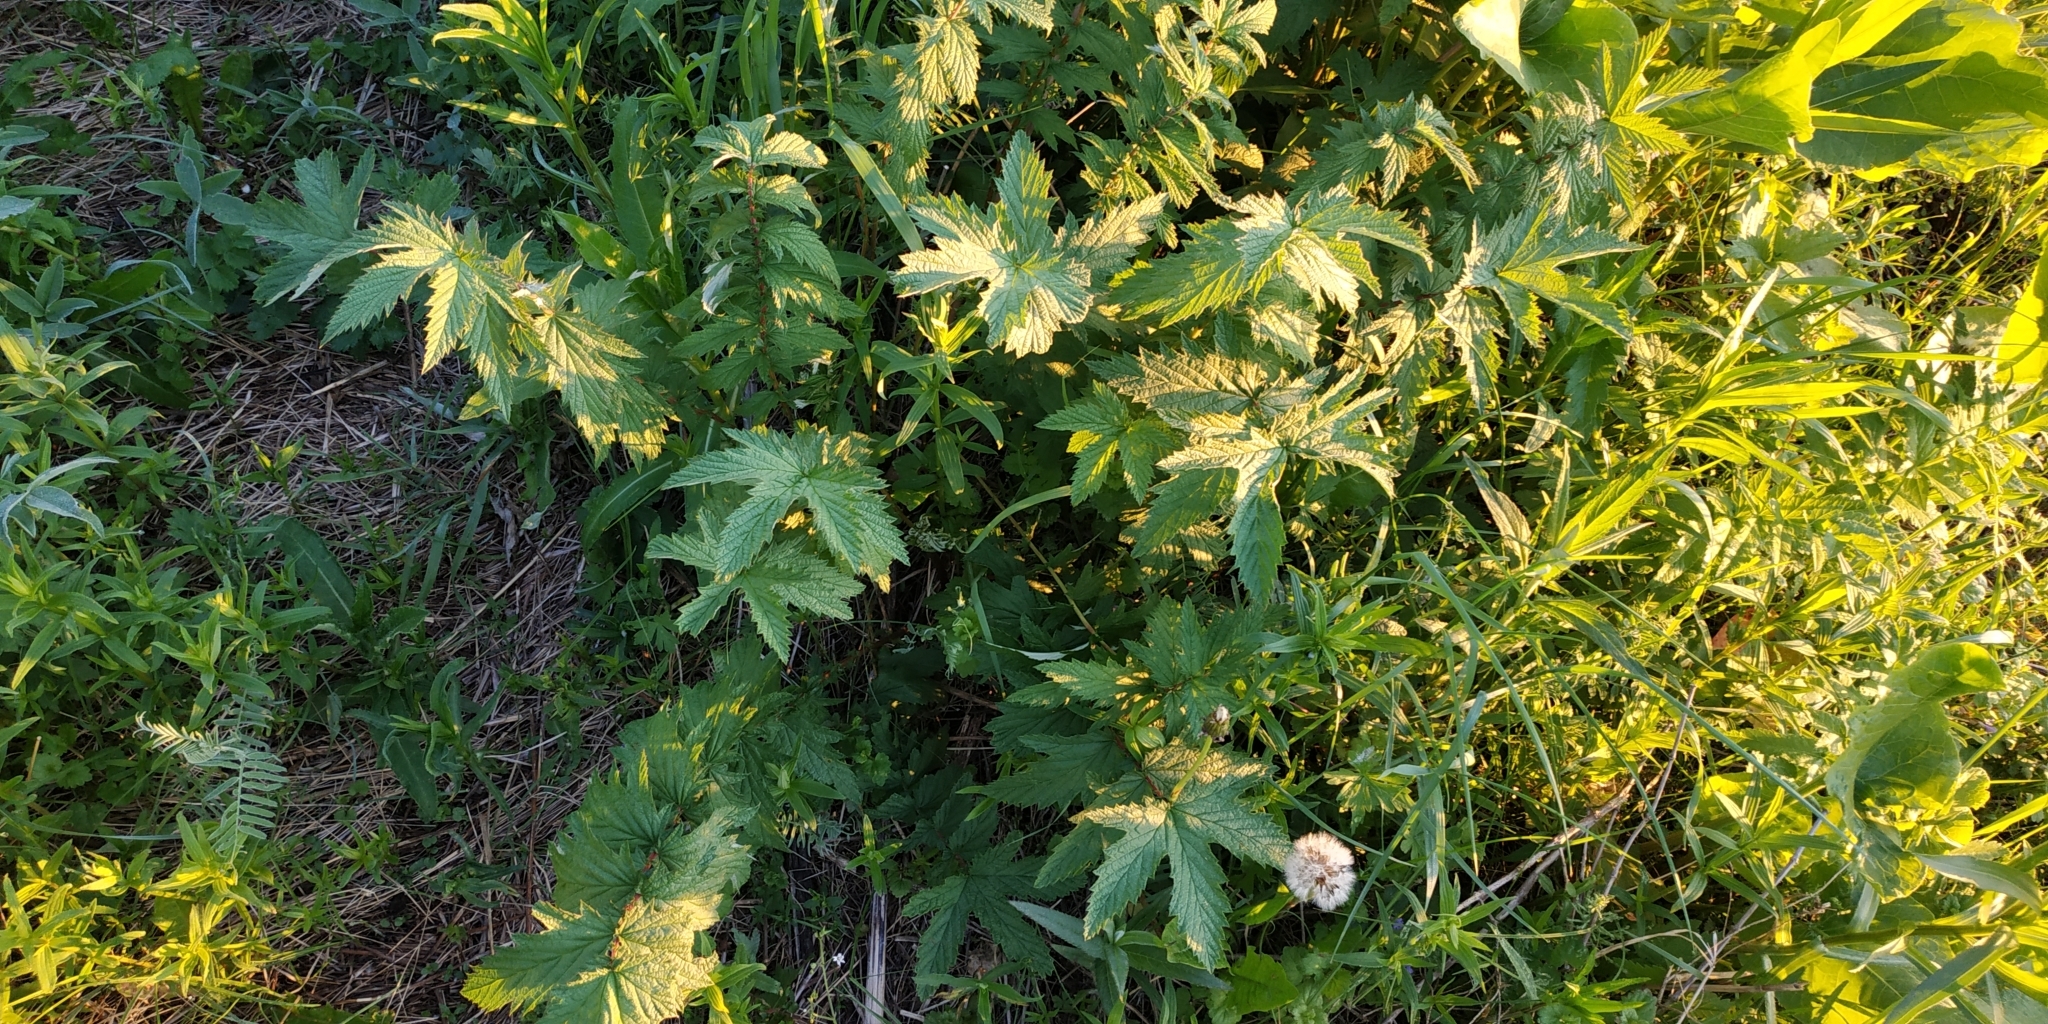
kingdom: Plantae
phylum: Tracheophyta
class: Magnoliopsida
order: Rosales
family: Rosaceae
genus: Filipendula
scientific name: Filipendula ulmaria
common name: Meadowsweet
